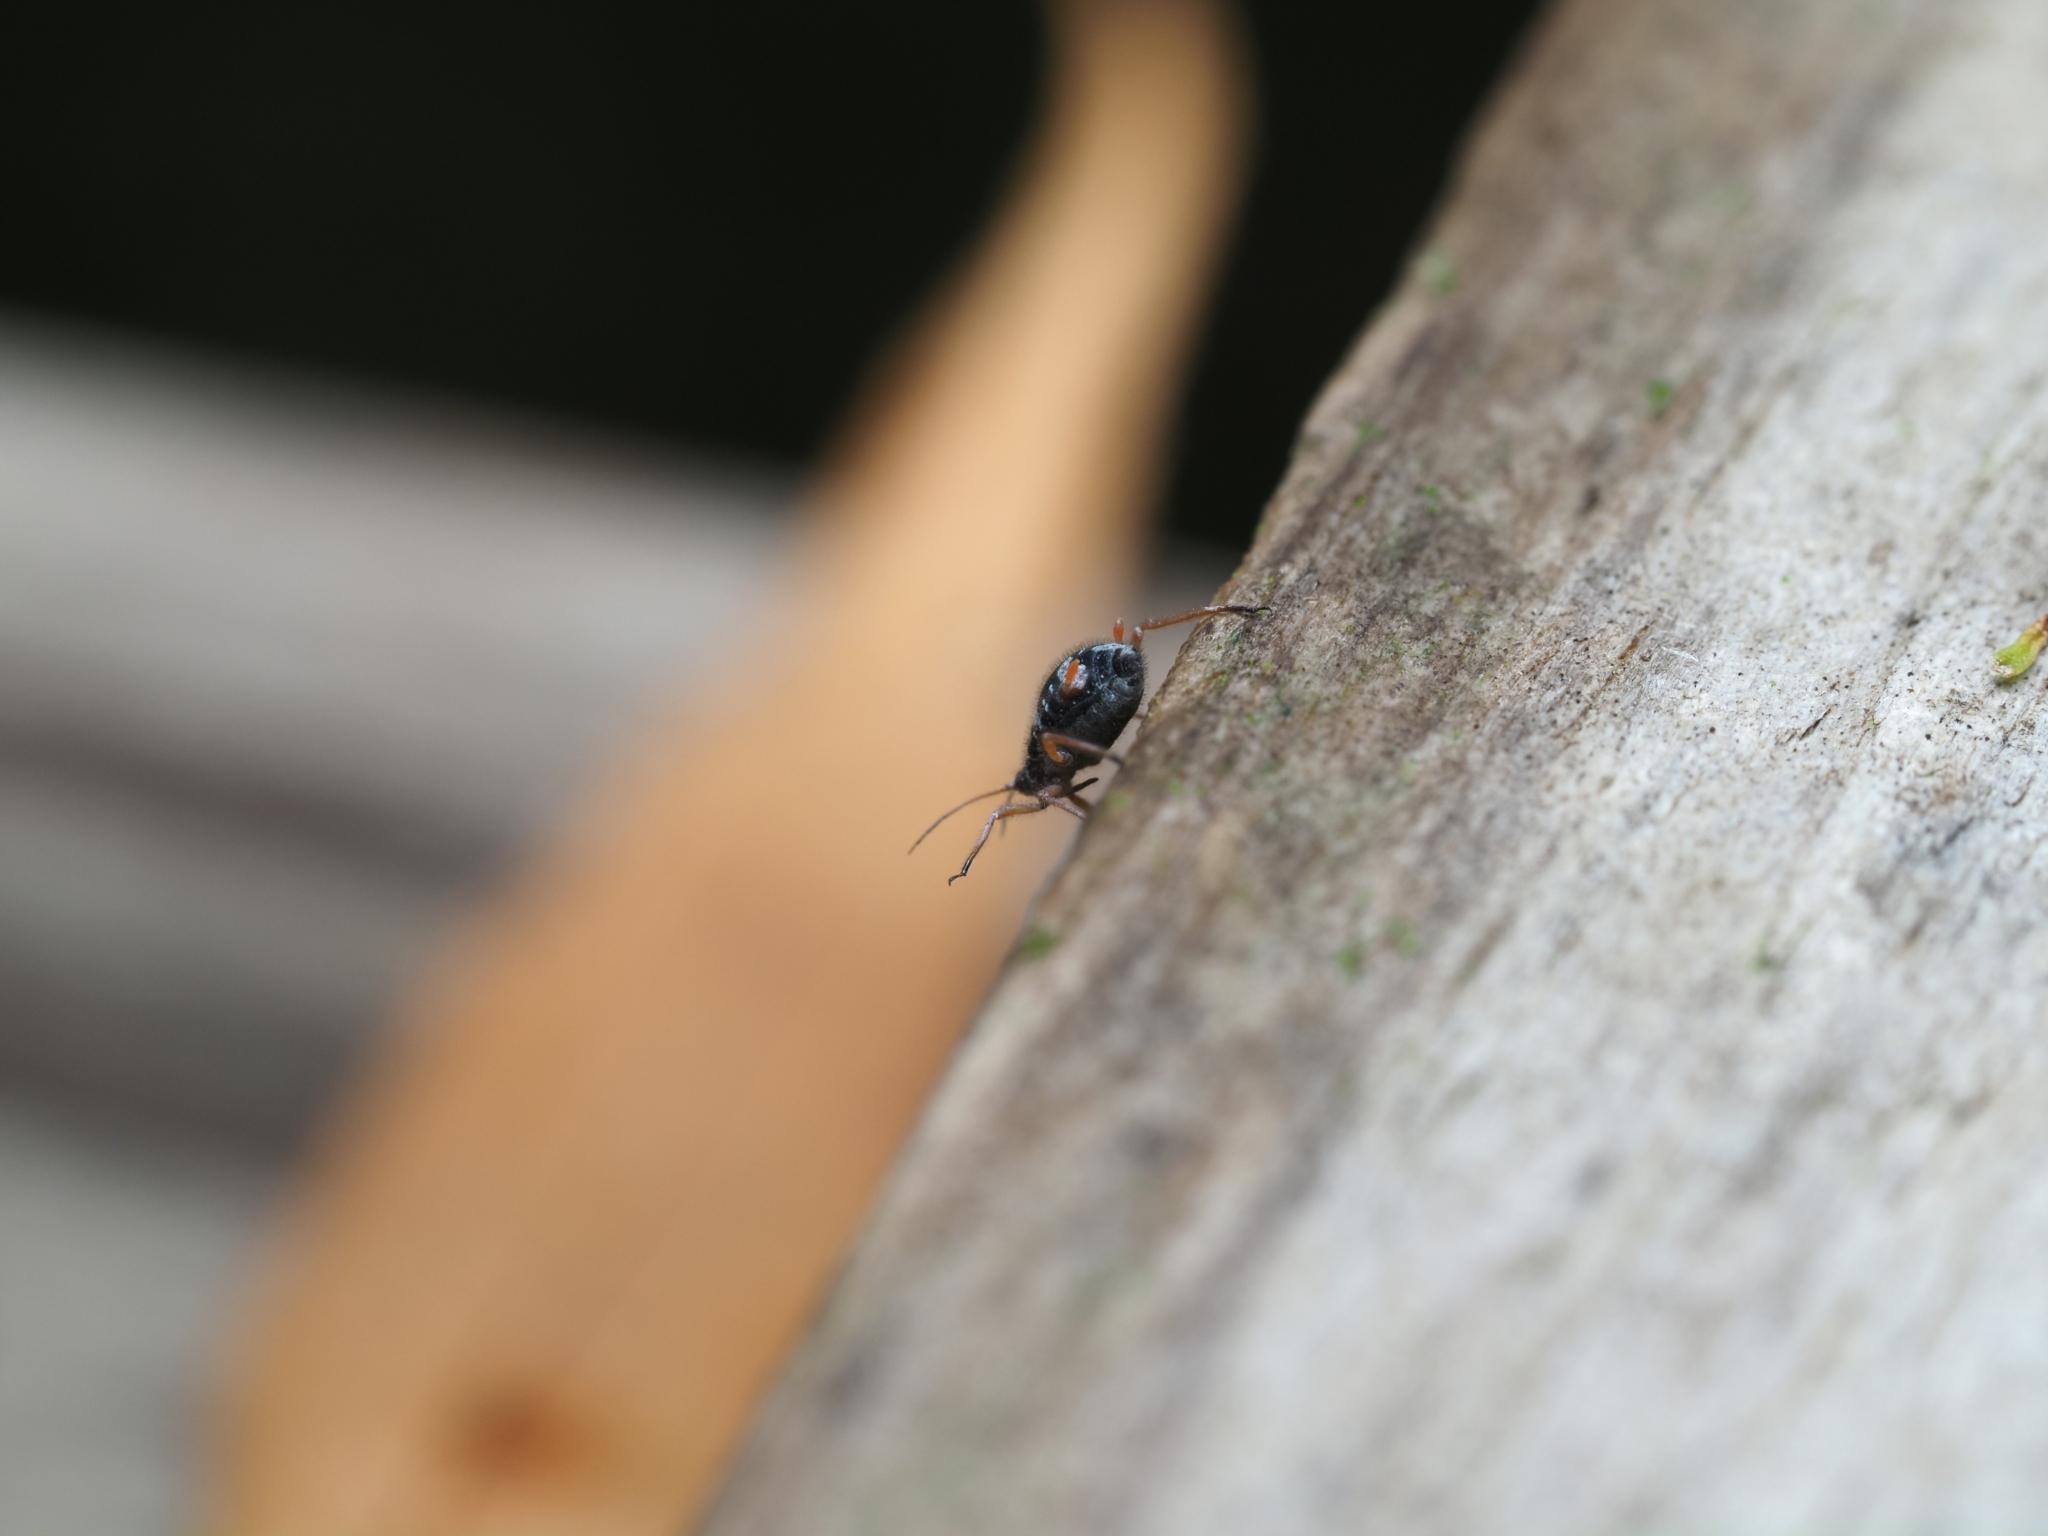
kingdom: Animalia
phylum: Arthropoda
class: Insecta
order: Hemiptera
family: Aphididae
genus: Pterocomma
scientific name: Pterocomma salicis
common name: Aphid
